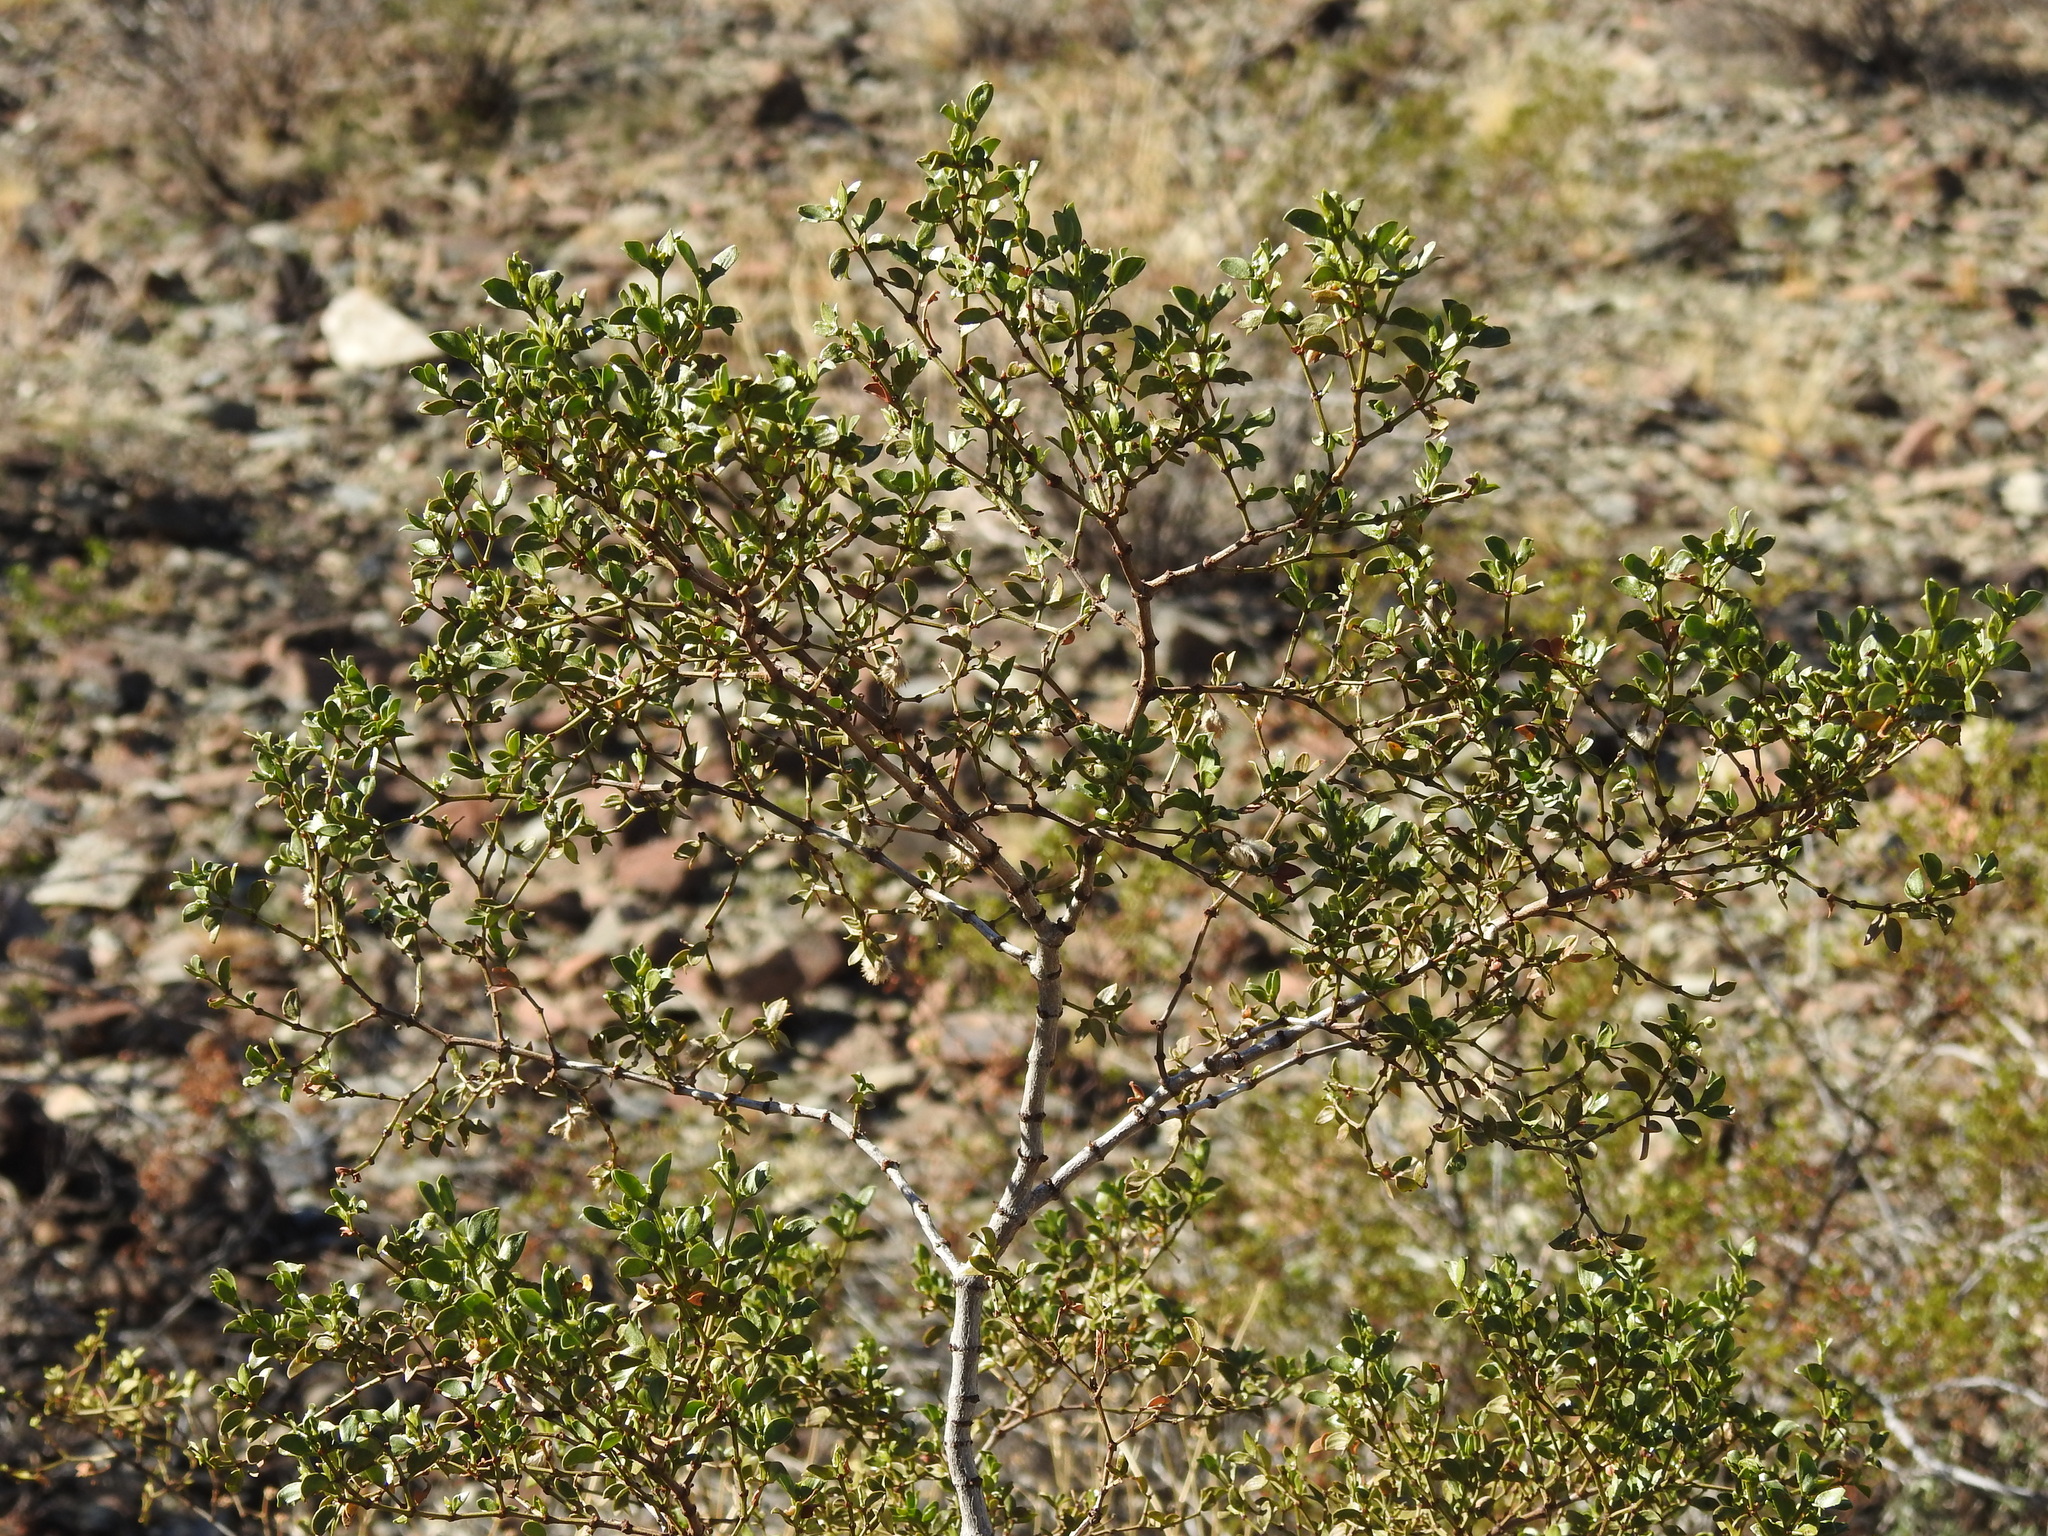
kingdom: Plantae
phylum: Tracheophyta
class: Magnoliopsida
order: Zygophyllales
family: Zygophyllaceae
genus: Larrea
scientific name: Larrea tridentata
